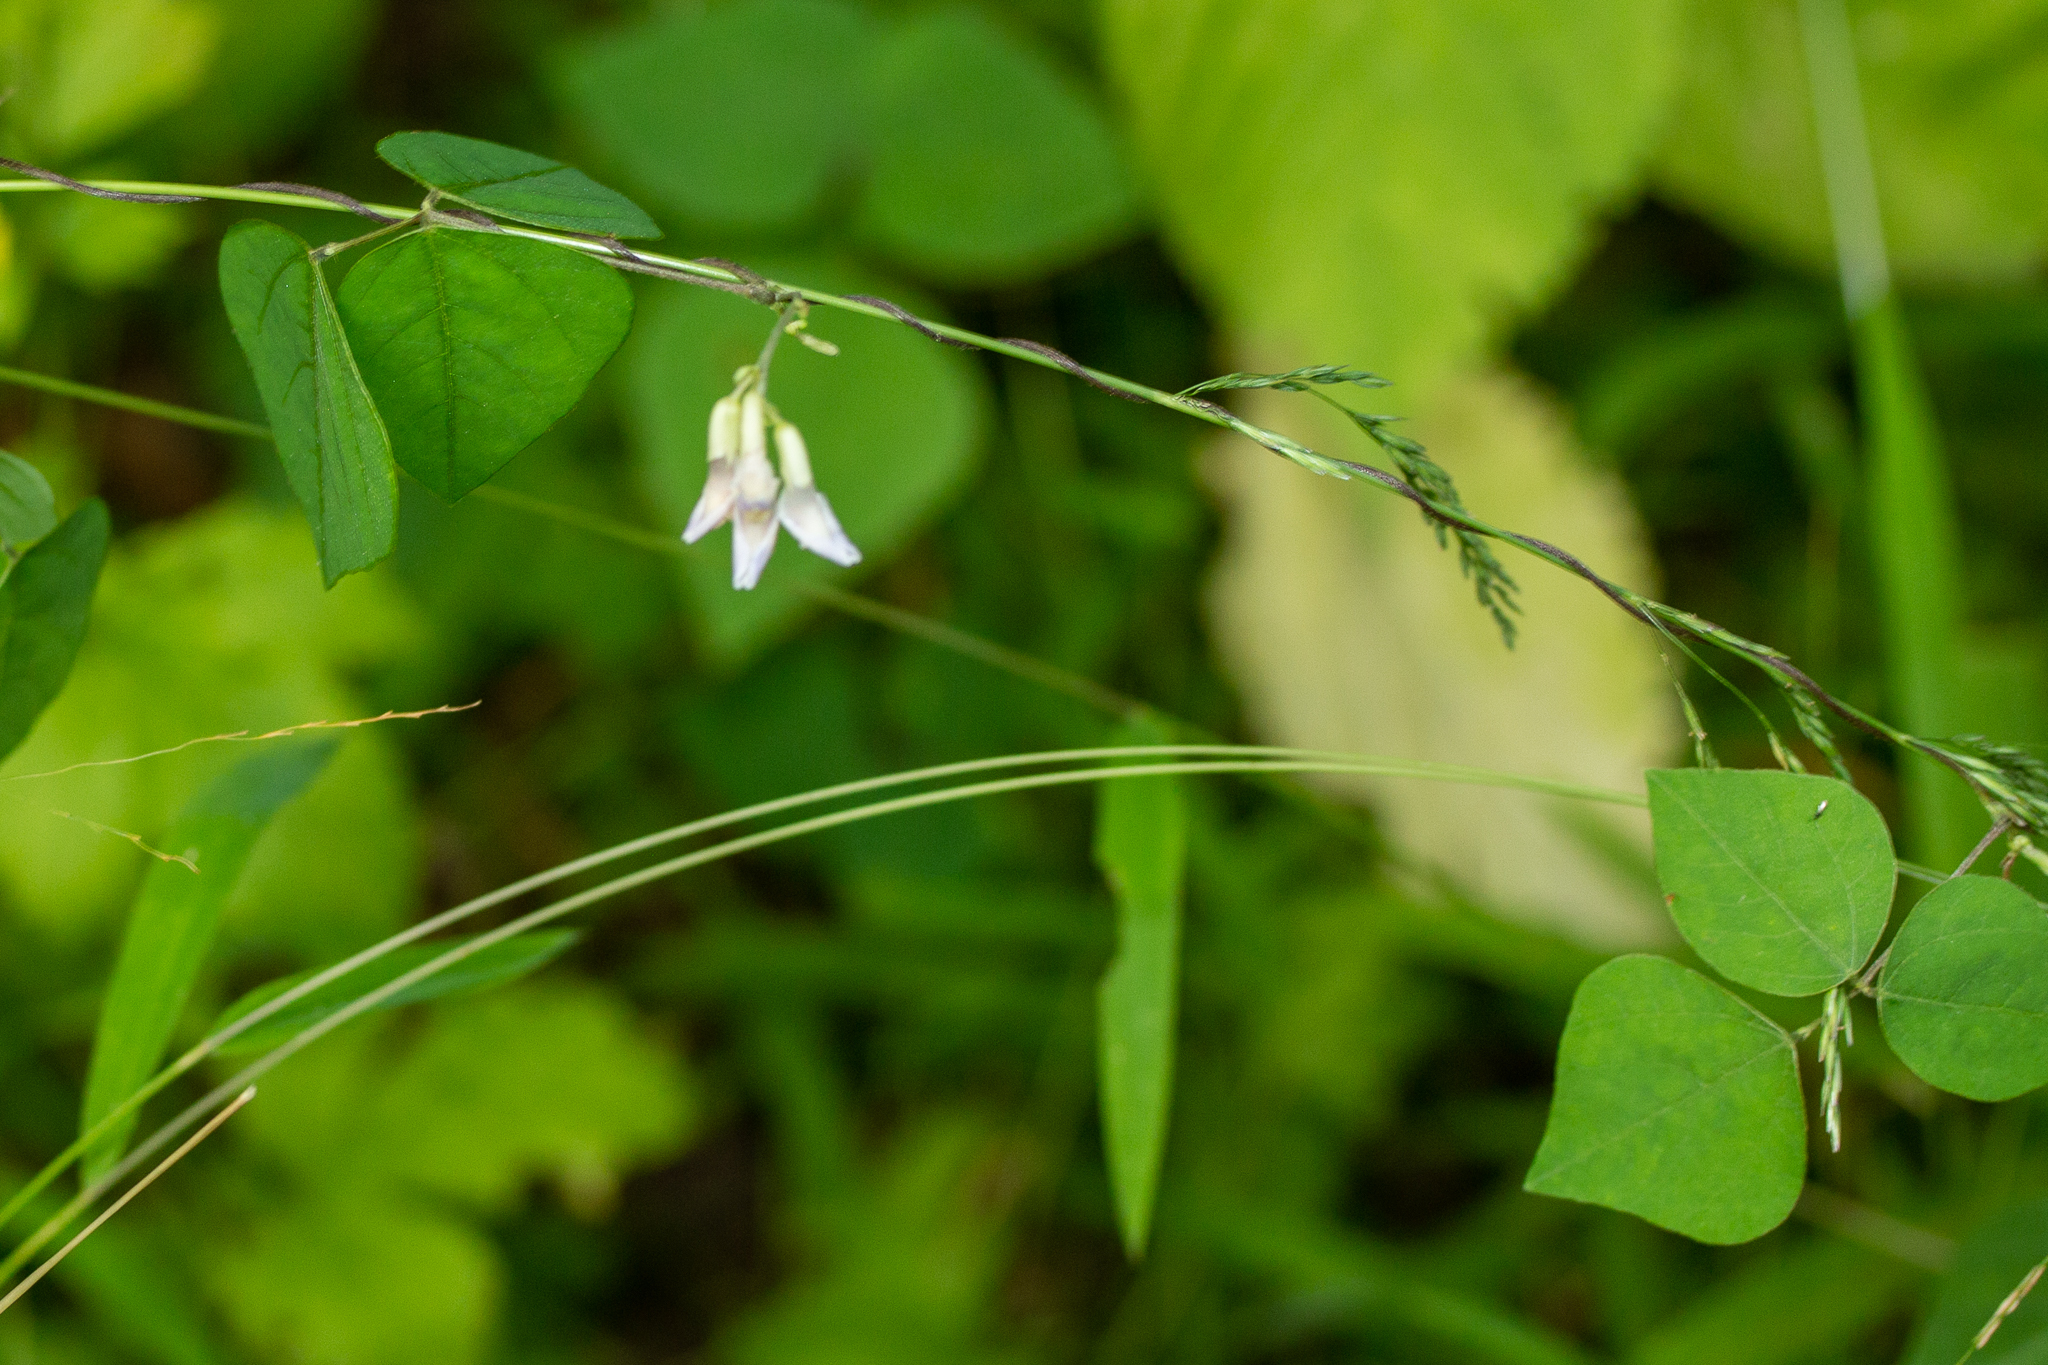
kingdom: Plantae
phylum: Tracheophyta
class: Magnoliopsida
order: Fabales
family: Fabaceae
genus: Amphicarpaea
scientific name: Amphicarpaea bracteata
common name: American hog peanut
